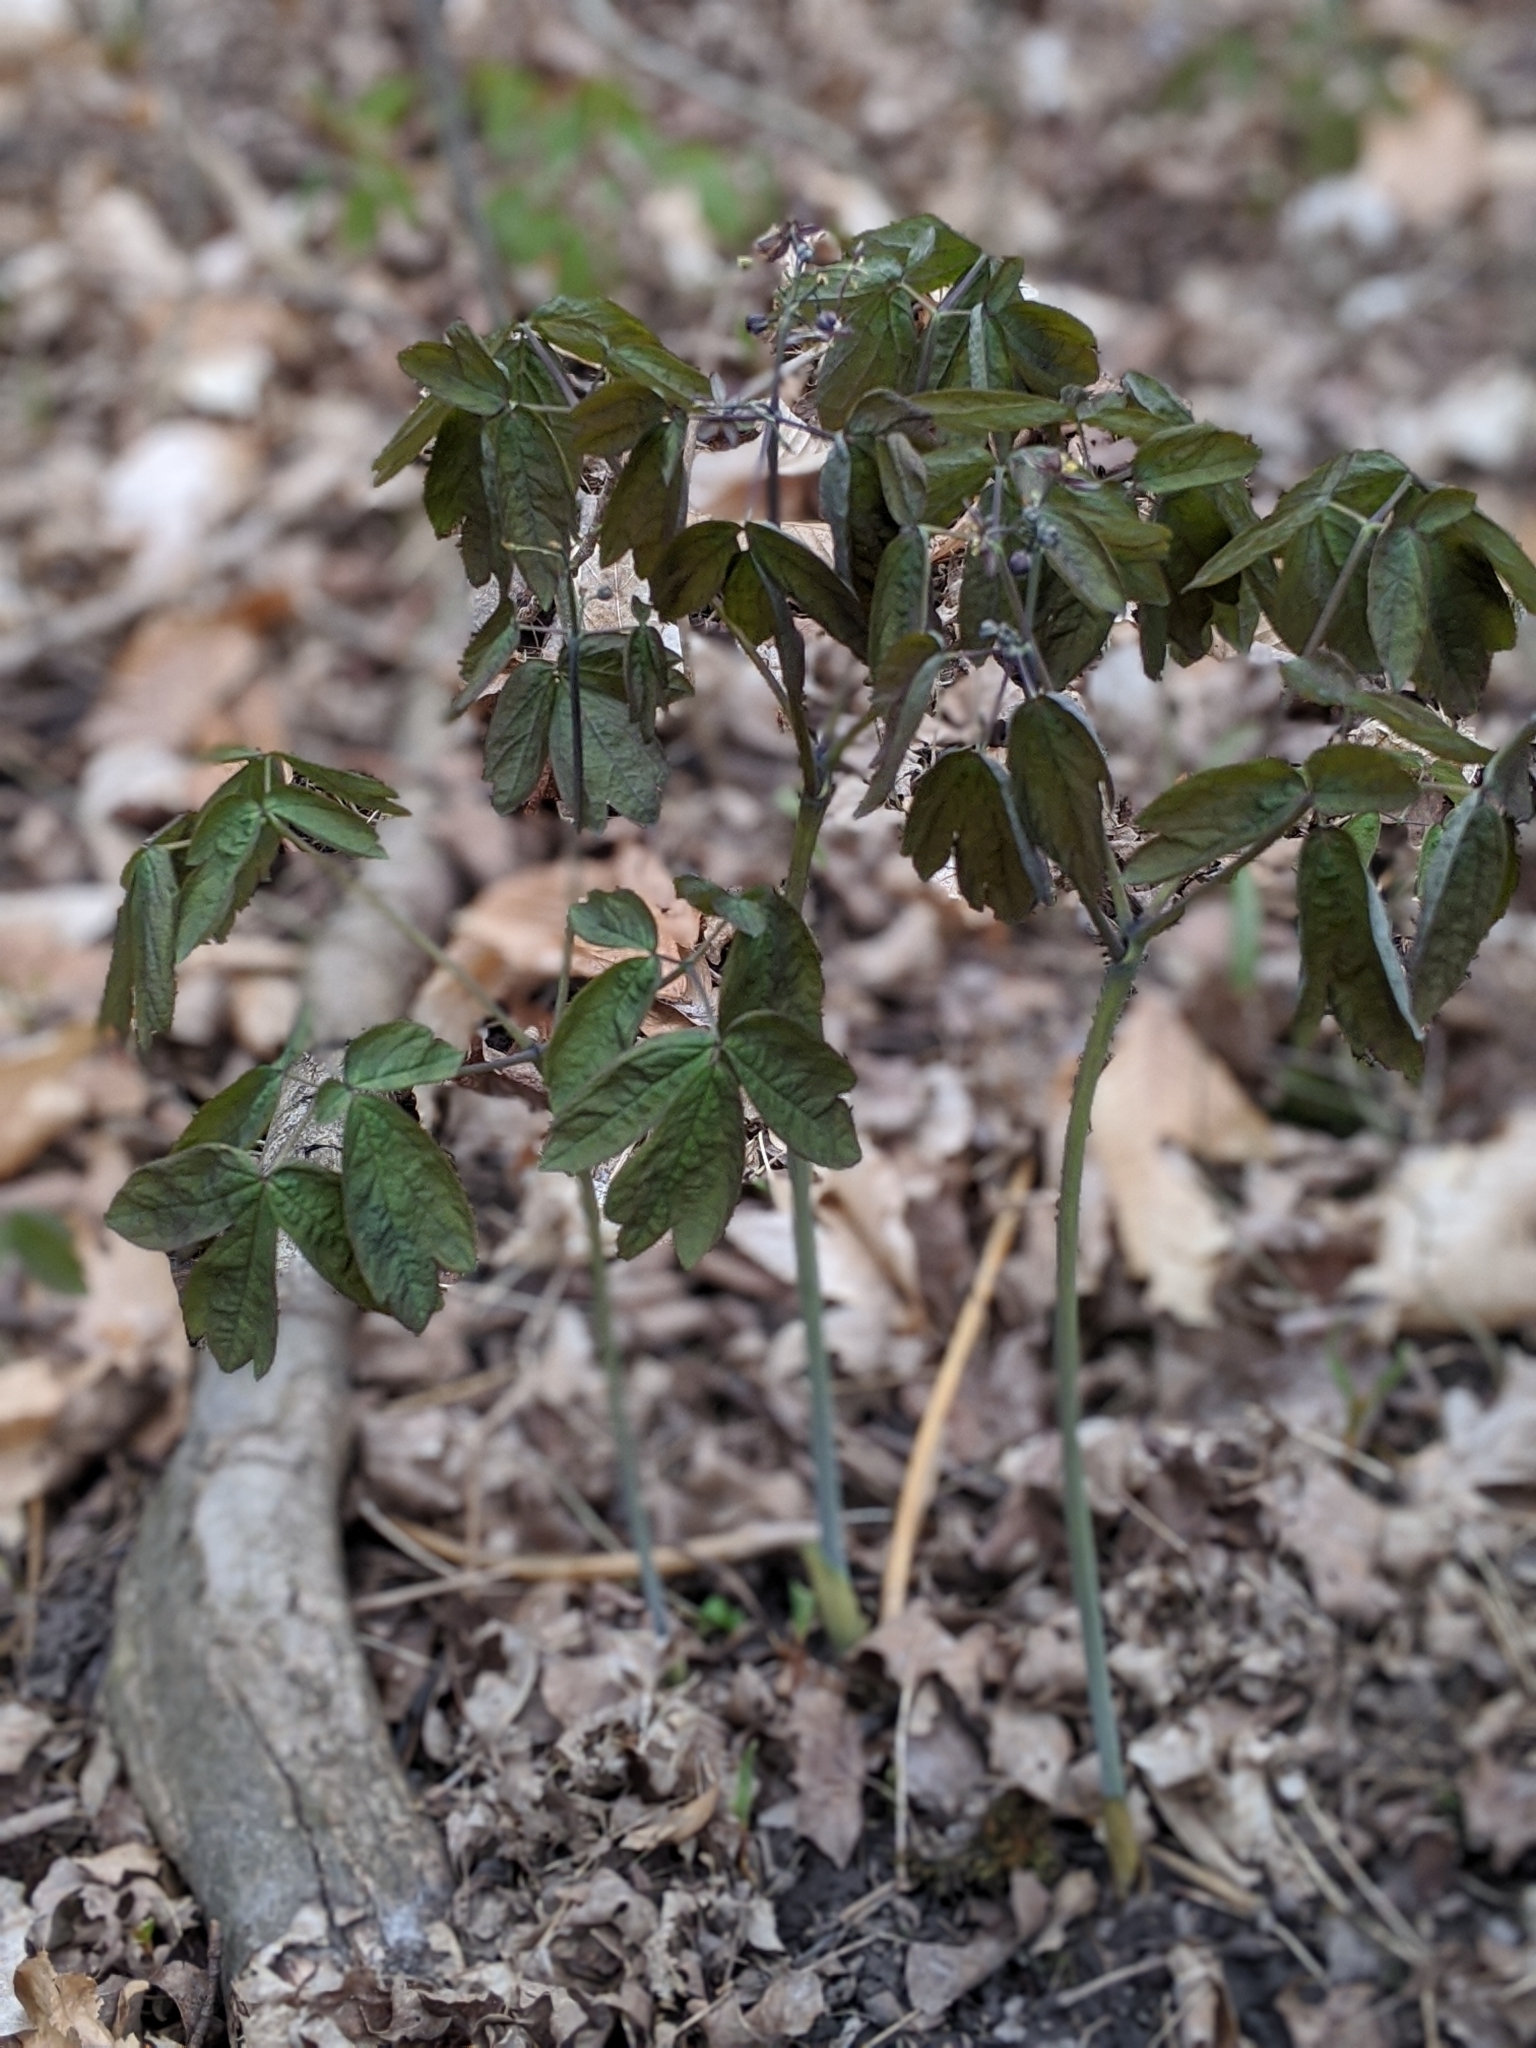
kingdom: Plantae
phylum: Tracheophyta
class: Magnoliopsida
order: Ranunculales
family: Berberidaceae
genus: Caulophyllum
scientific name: Caulophyllum giganteum
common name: Blue cohosh
